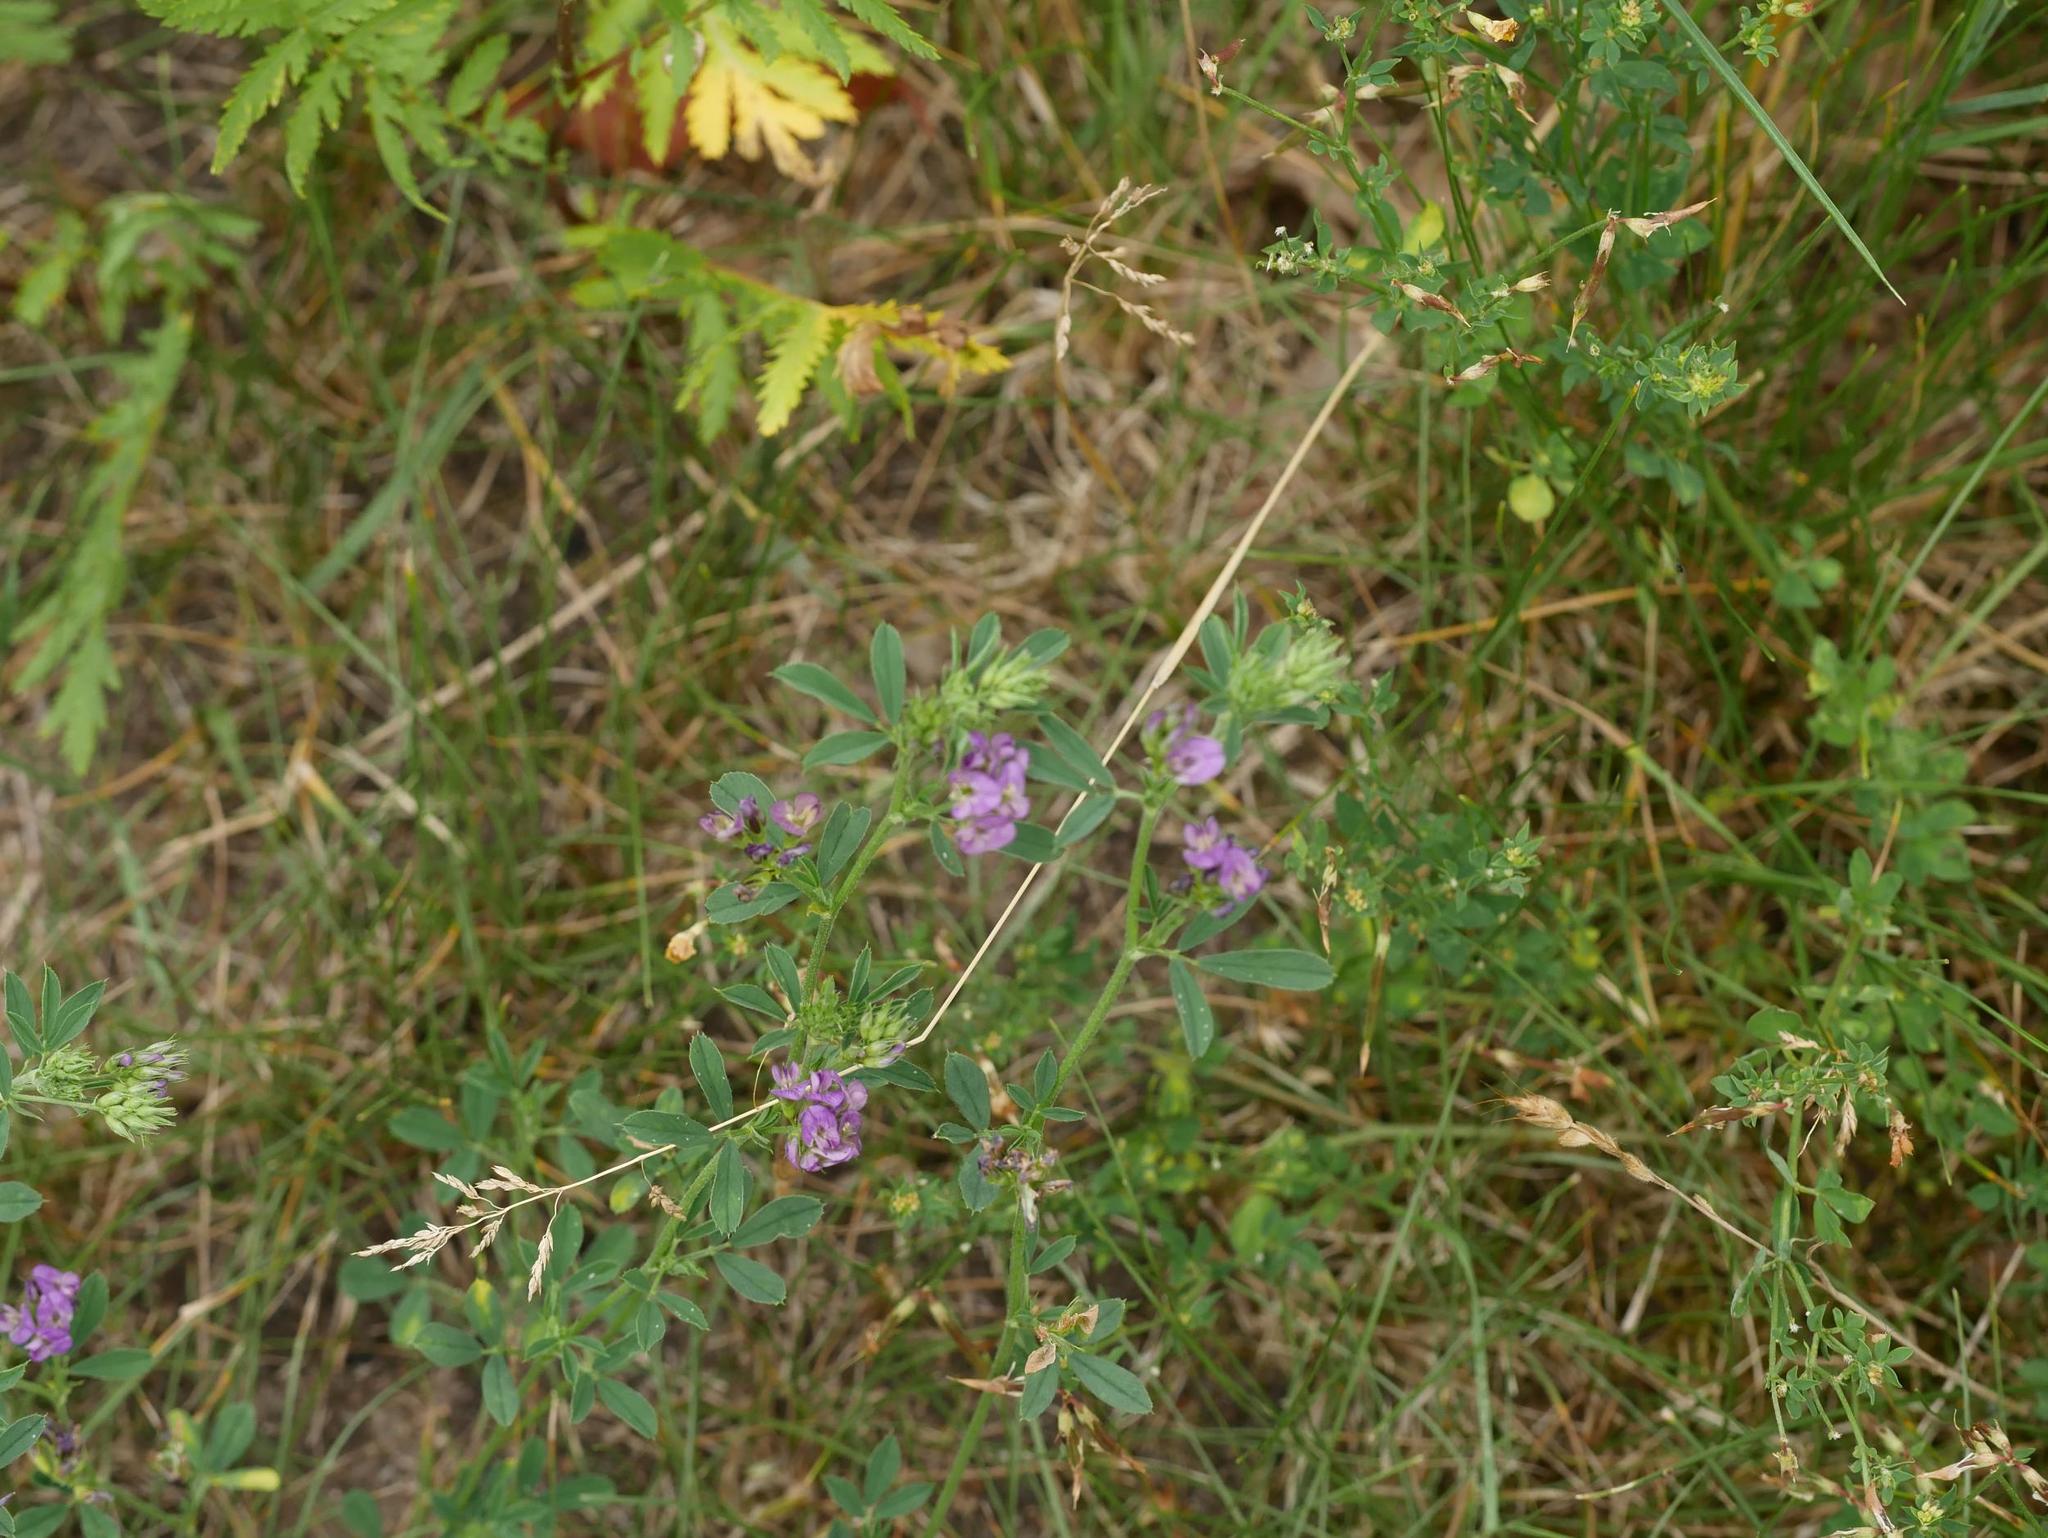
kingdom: Plantae
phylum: Tracheophyta
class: Magnoliopsida
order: Fabales
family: Fabaceae
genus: Medicago
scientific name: Medicago varia
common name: Sand lucerne
